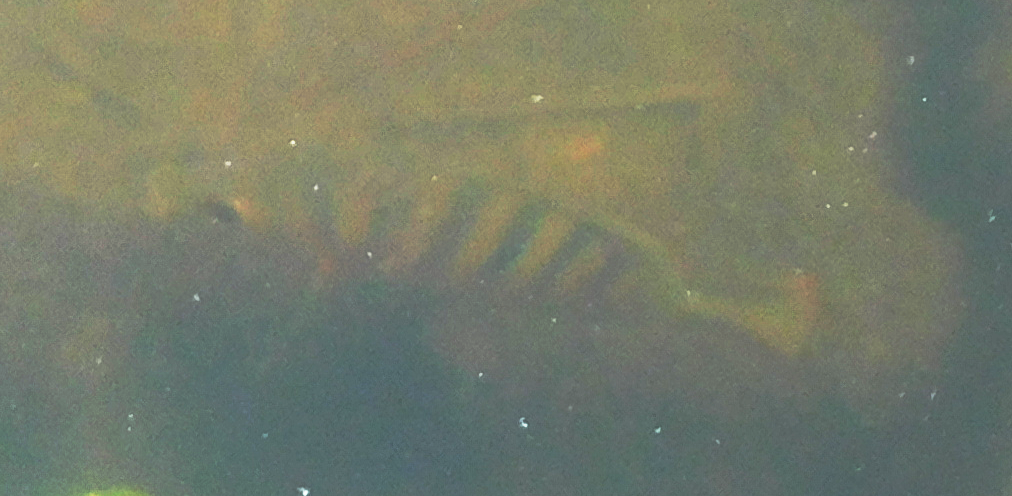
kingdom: Animalia
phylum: Chordata
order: Perciformes
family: Cichlidae
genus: Mayaheros
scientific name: Mayaheros urophthalmus
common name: Mayan cichlid
